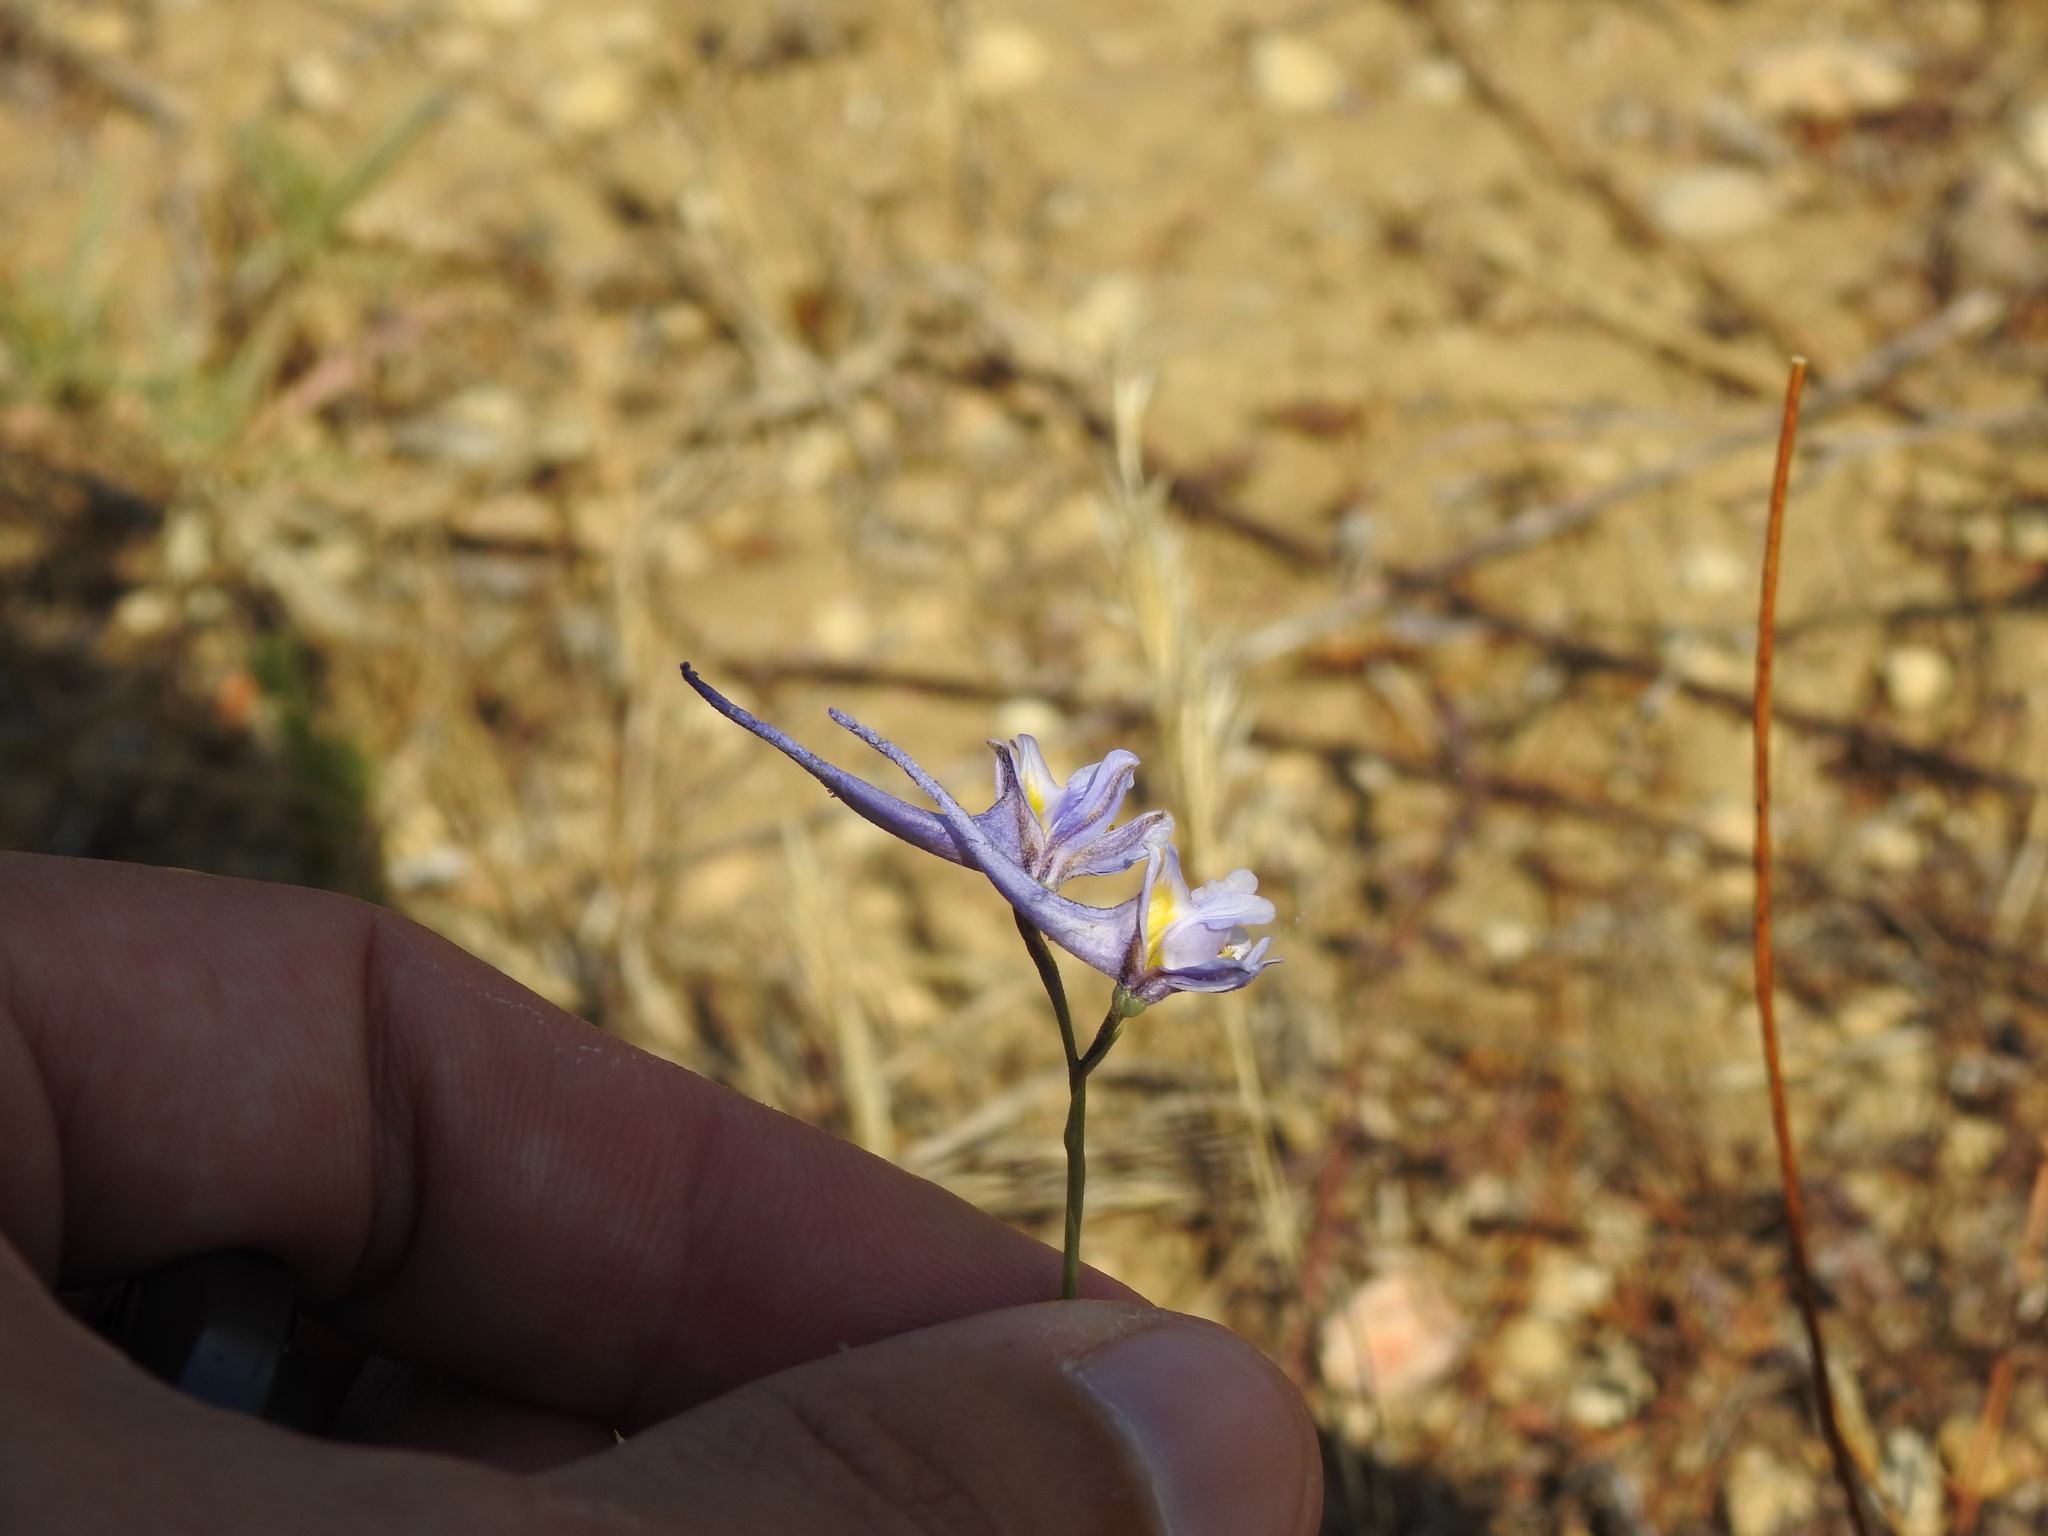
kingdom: Plantae
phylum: Tracheophyta
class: Magnoliopsida
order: Ranunculales
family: Ranunculaceae
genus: Delphinium
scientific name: Delphinium gracile
